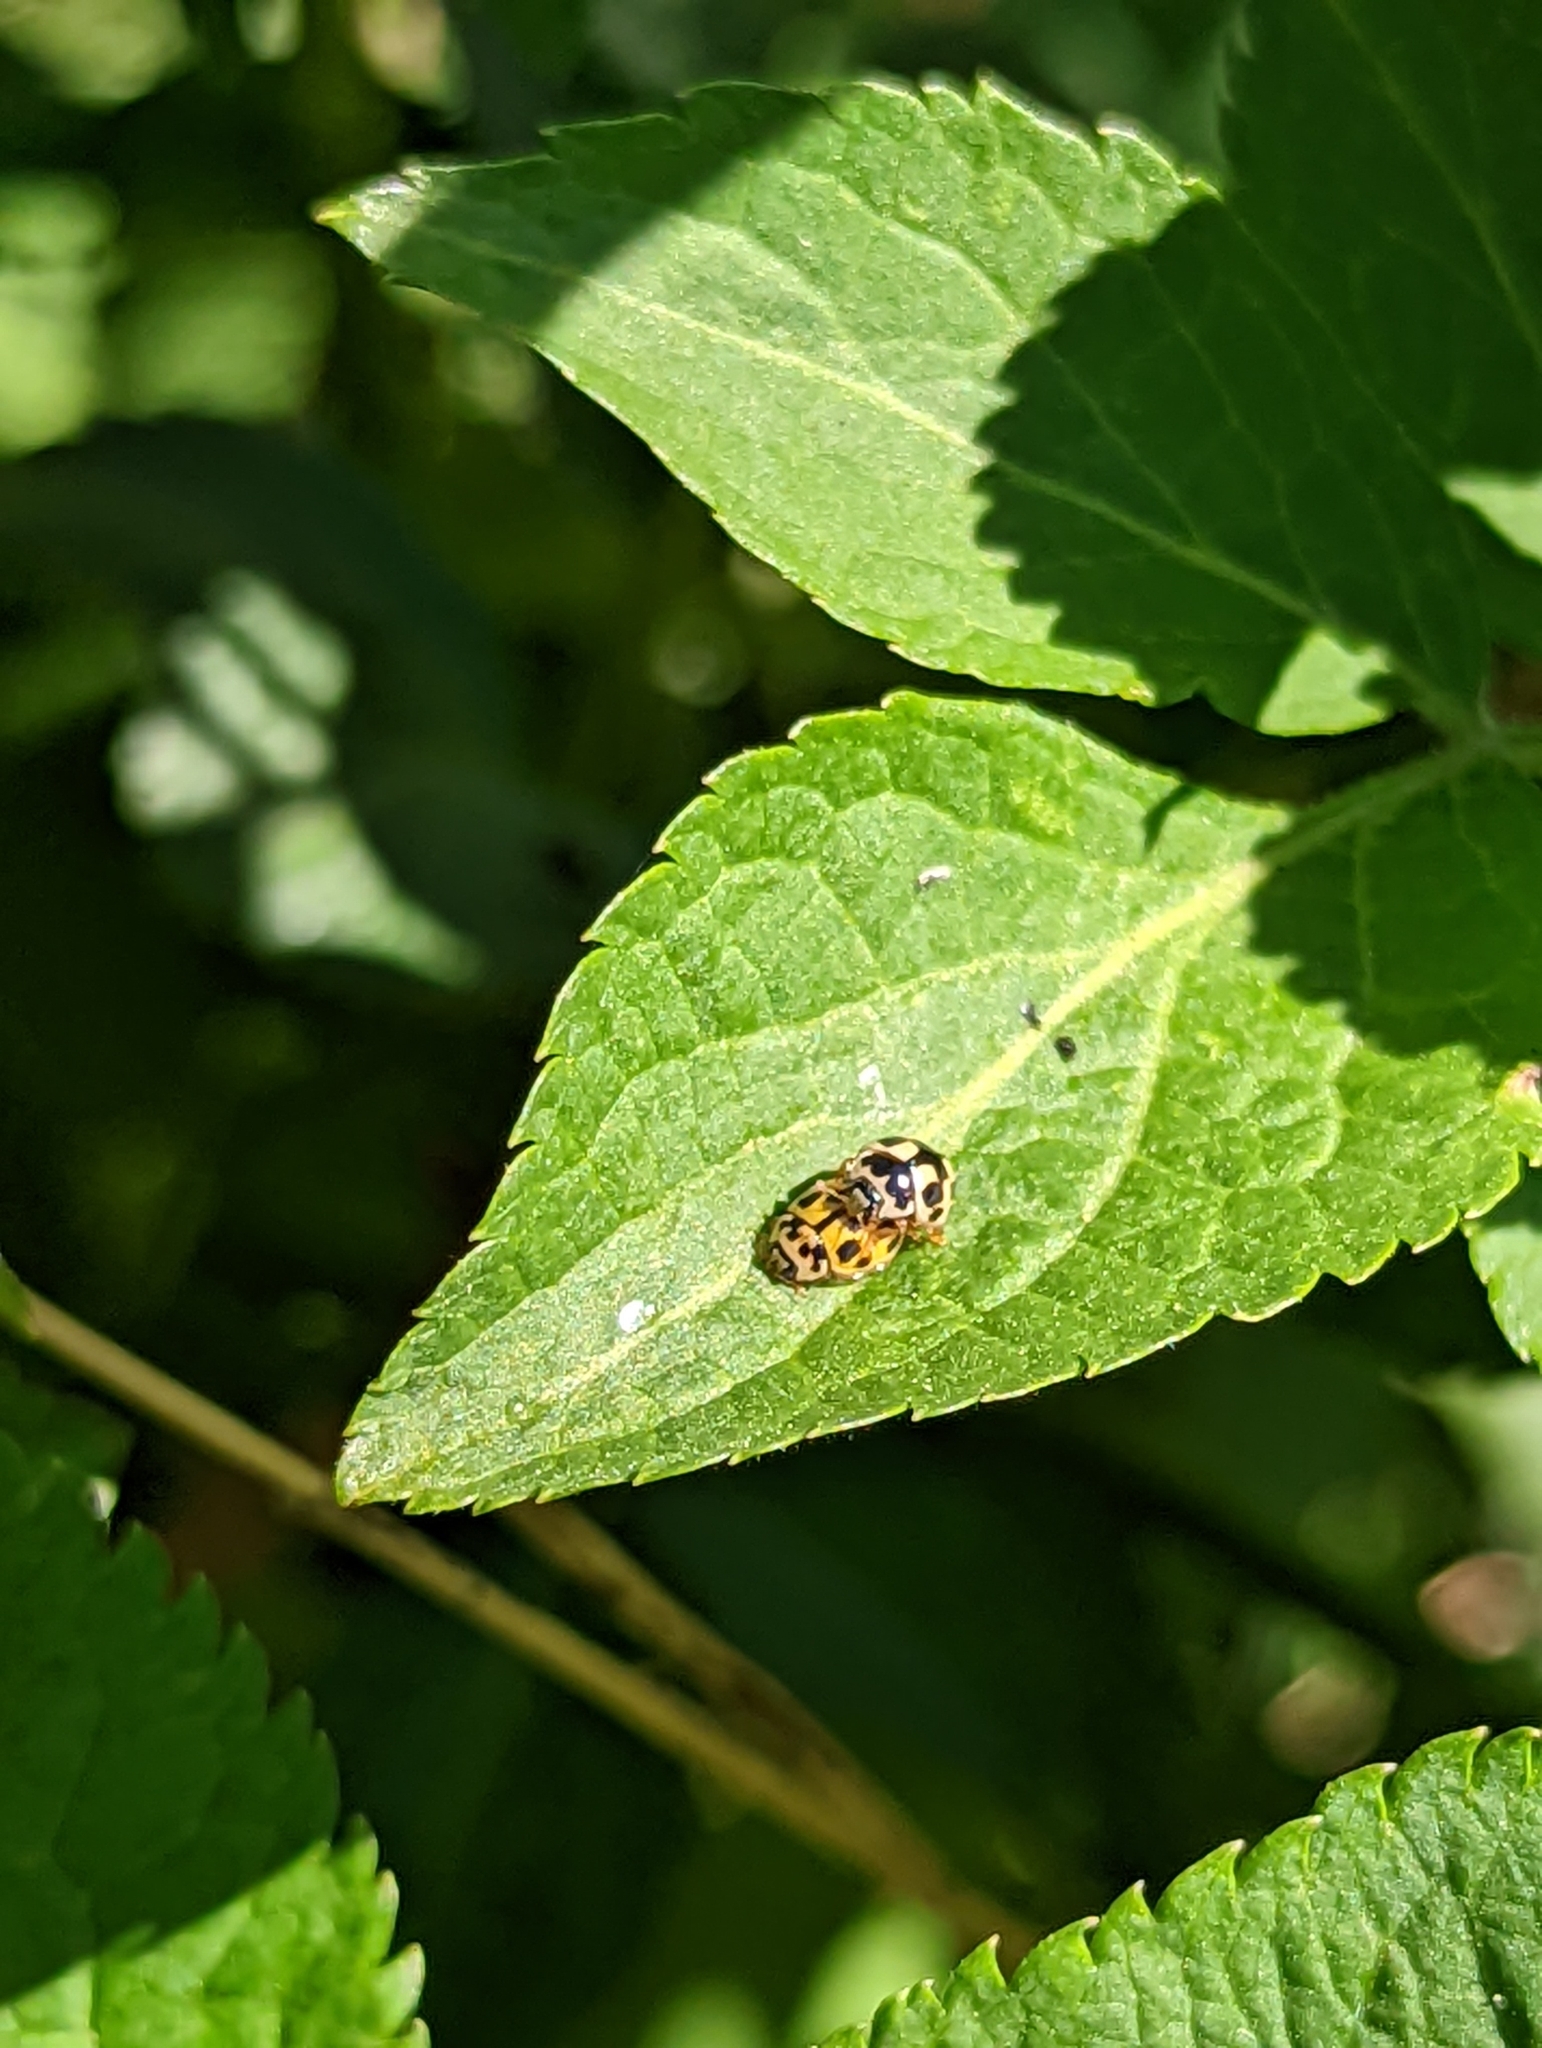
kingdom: Animalia
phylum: Arthropoda
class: Insecta
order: Coleoptera
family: Coccinellidae
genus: Propylaea
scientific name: Propylaea quatuordecimpunctata
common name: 14-spotted ladybird beetle
